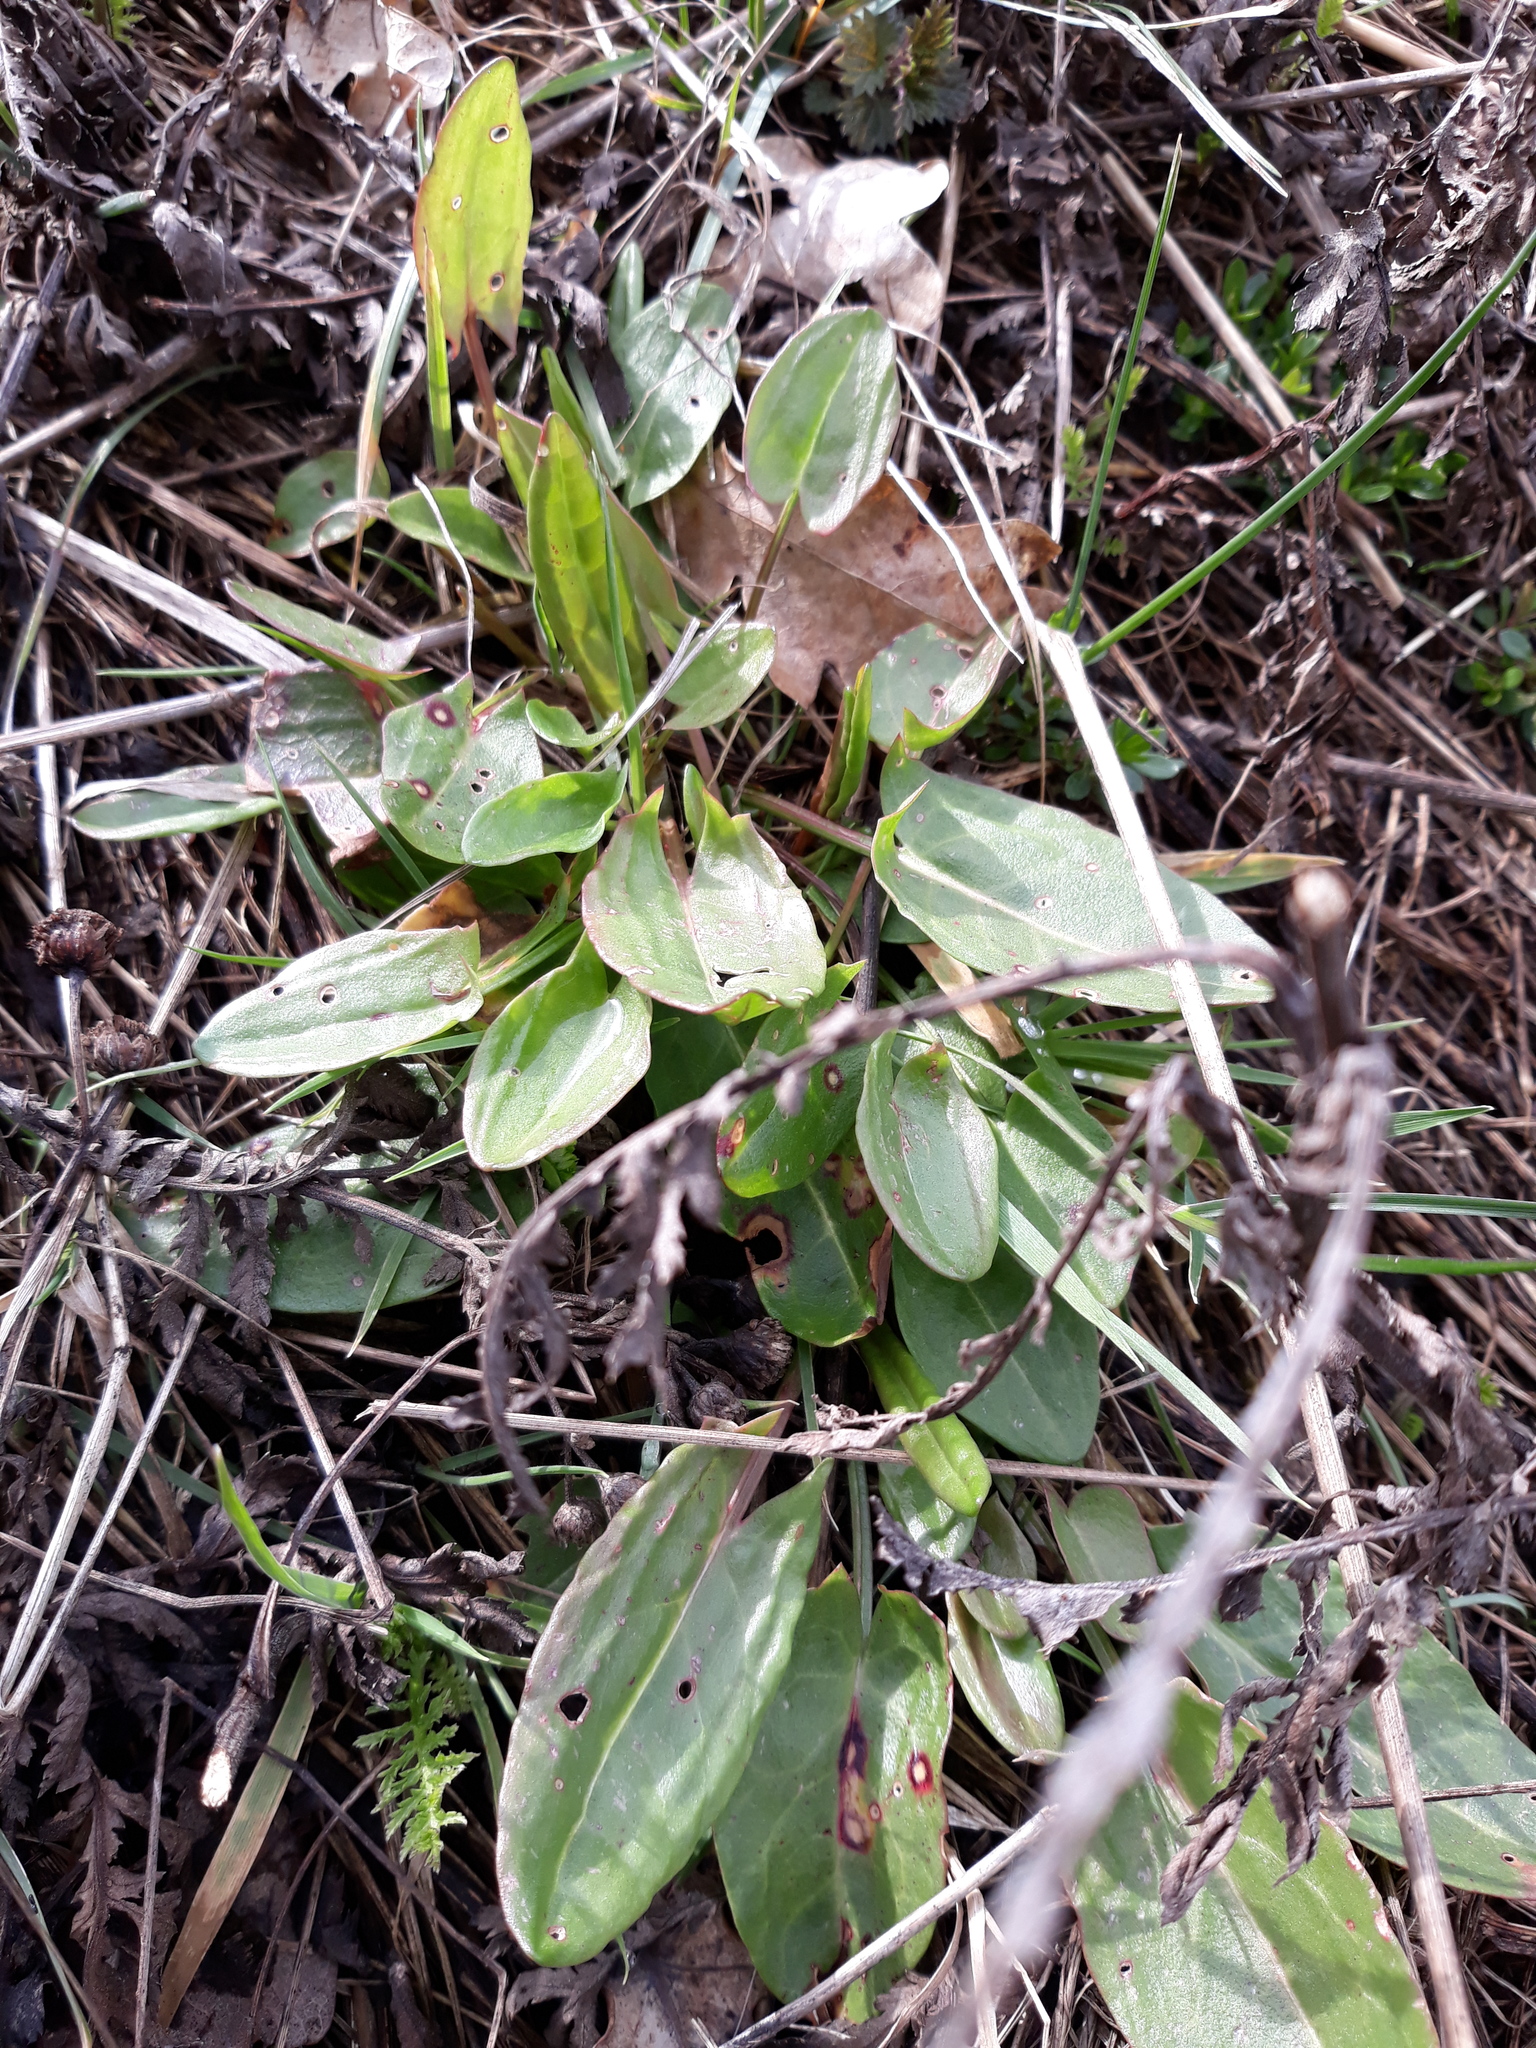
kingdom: Plantae
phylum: Tracheophyta
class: Magnoliopsida
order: Caryophyllales
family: Polygonaceae
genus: Rumex
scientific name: Rumex acetosa
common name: Garden sorrel
